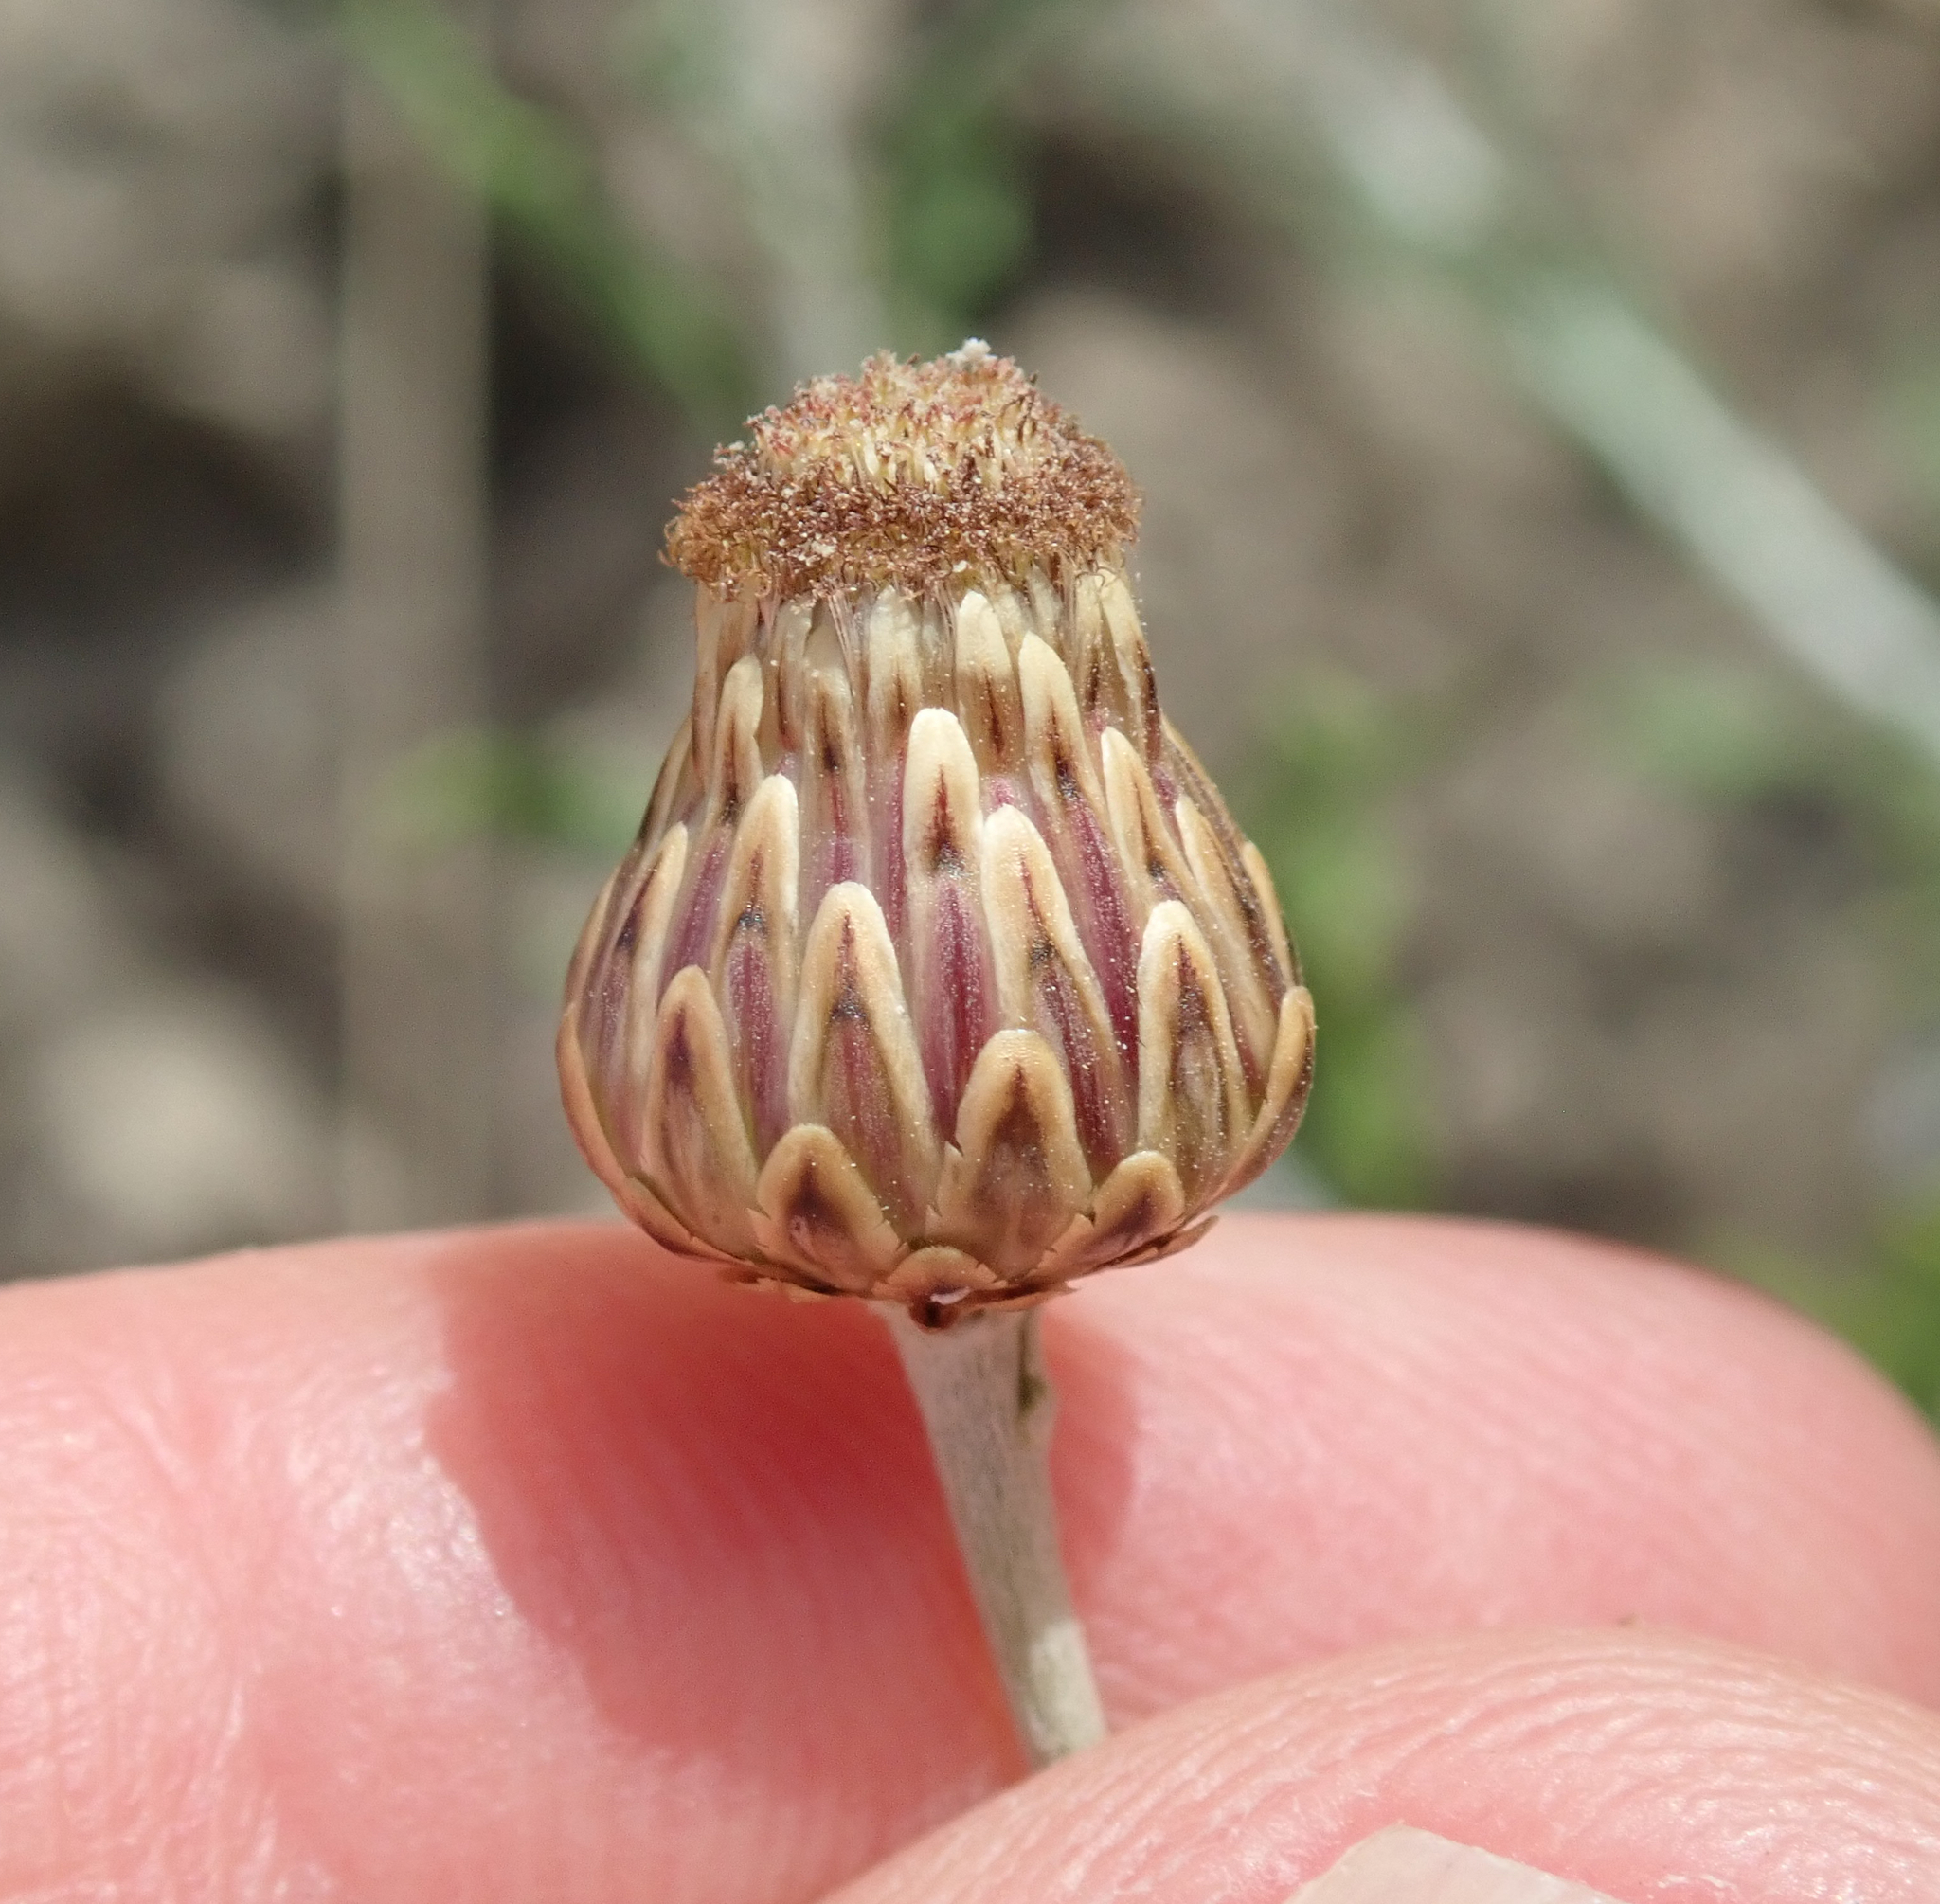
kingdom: Plantae
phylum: Tracheophyta
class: Magnoliopsida
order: Asterales
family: Asteraceae
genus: Phagnalon
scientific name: Phagnalon rupestre
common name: Rock phagnalon
